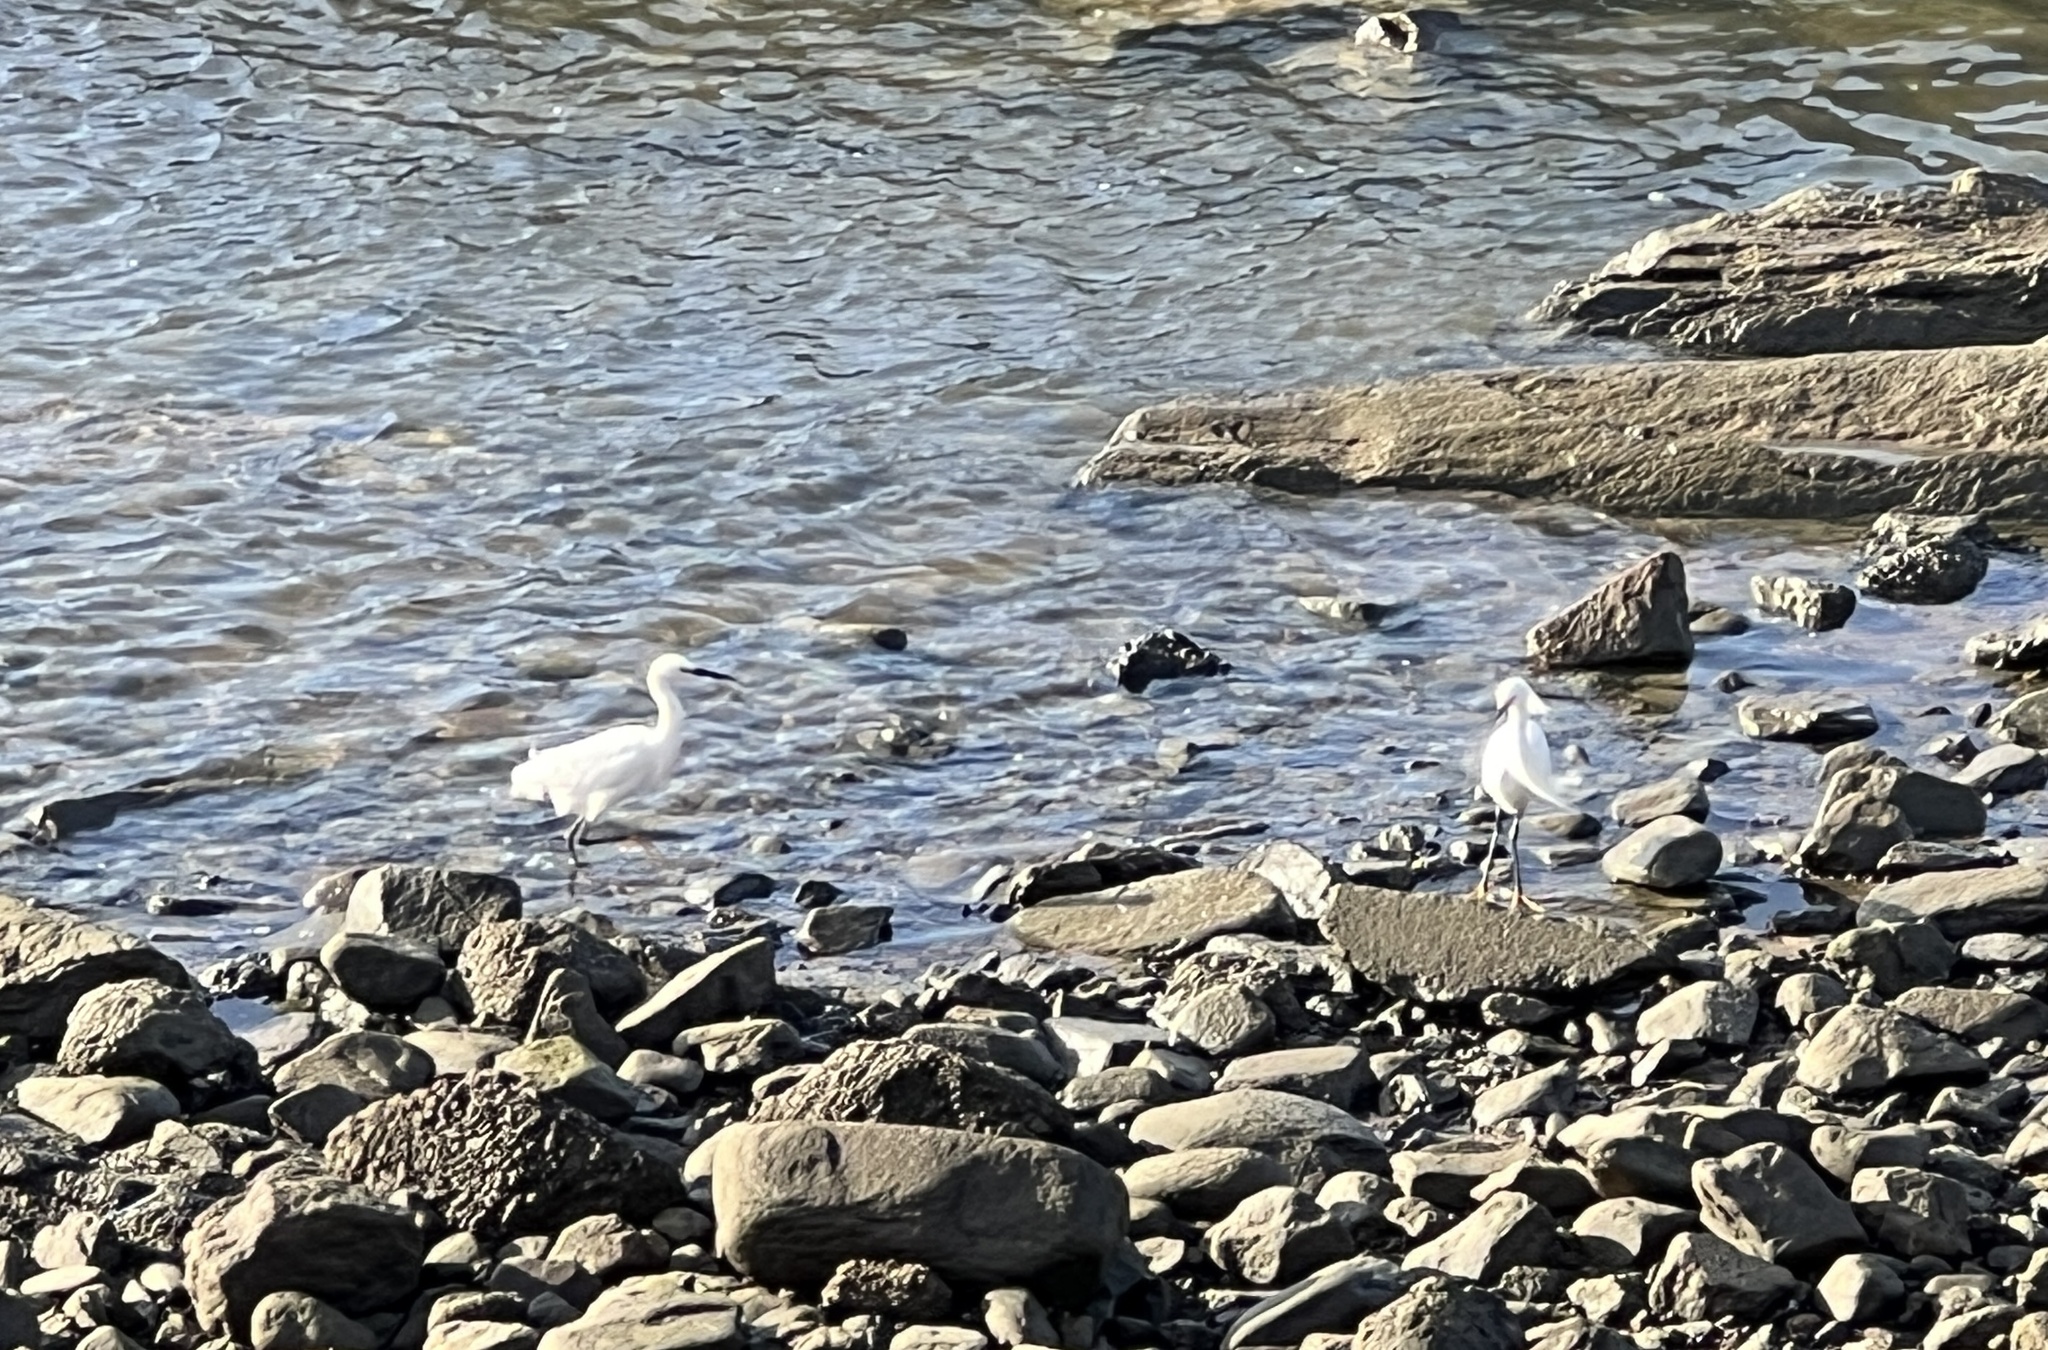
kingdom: Animalia
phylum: Chordata
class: Aves
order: Pelecaniformes
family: Ardeidae
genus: Egretta
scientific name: Egretta thula
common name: Snowy egret
